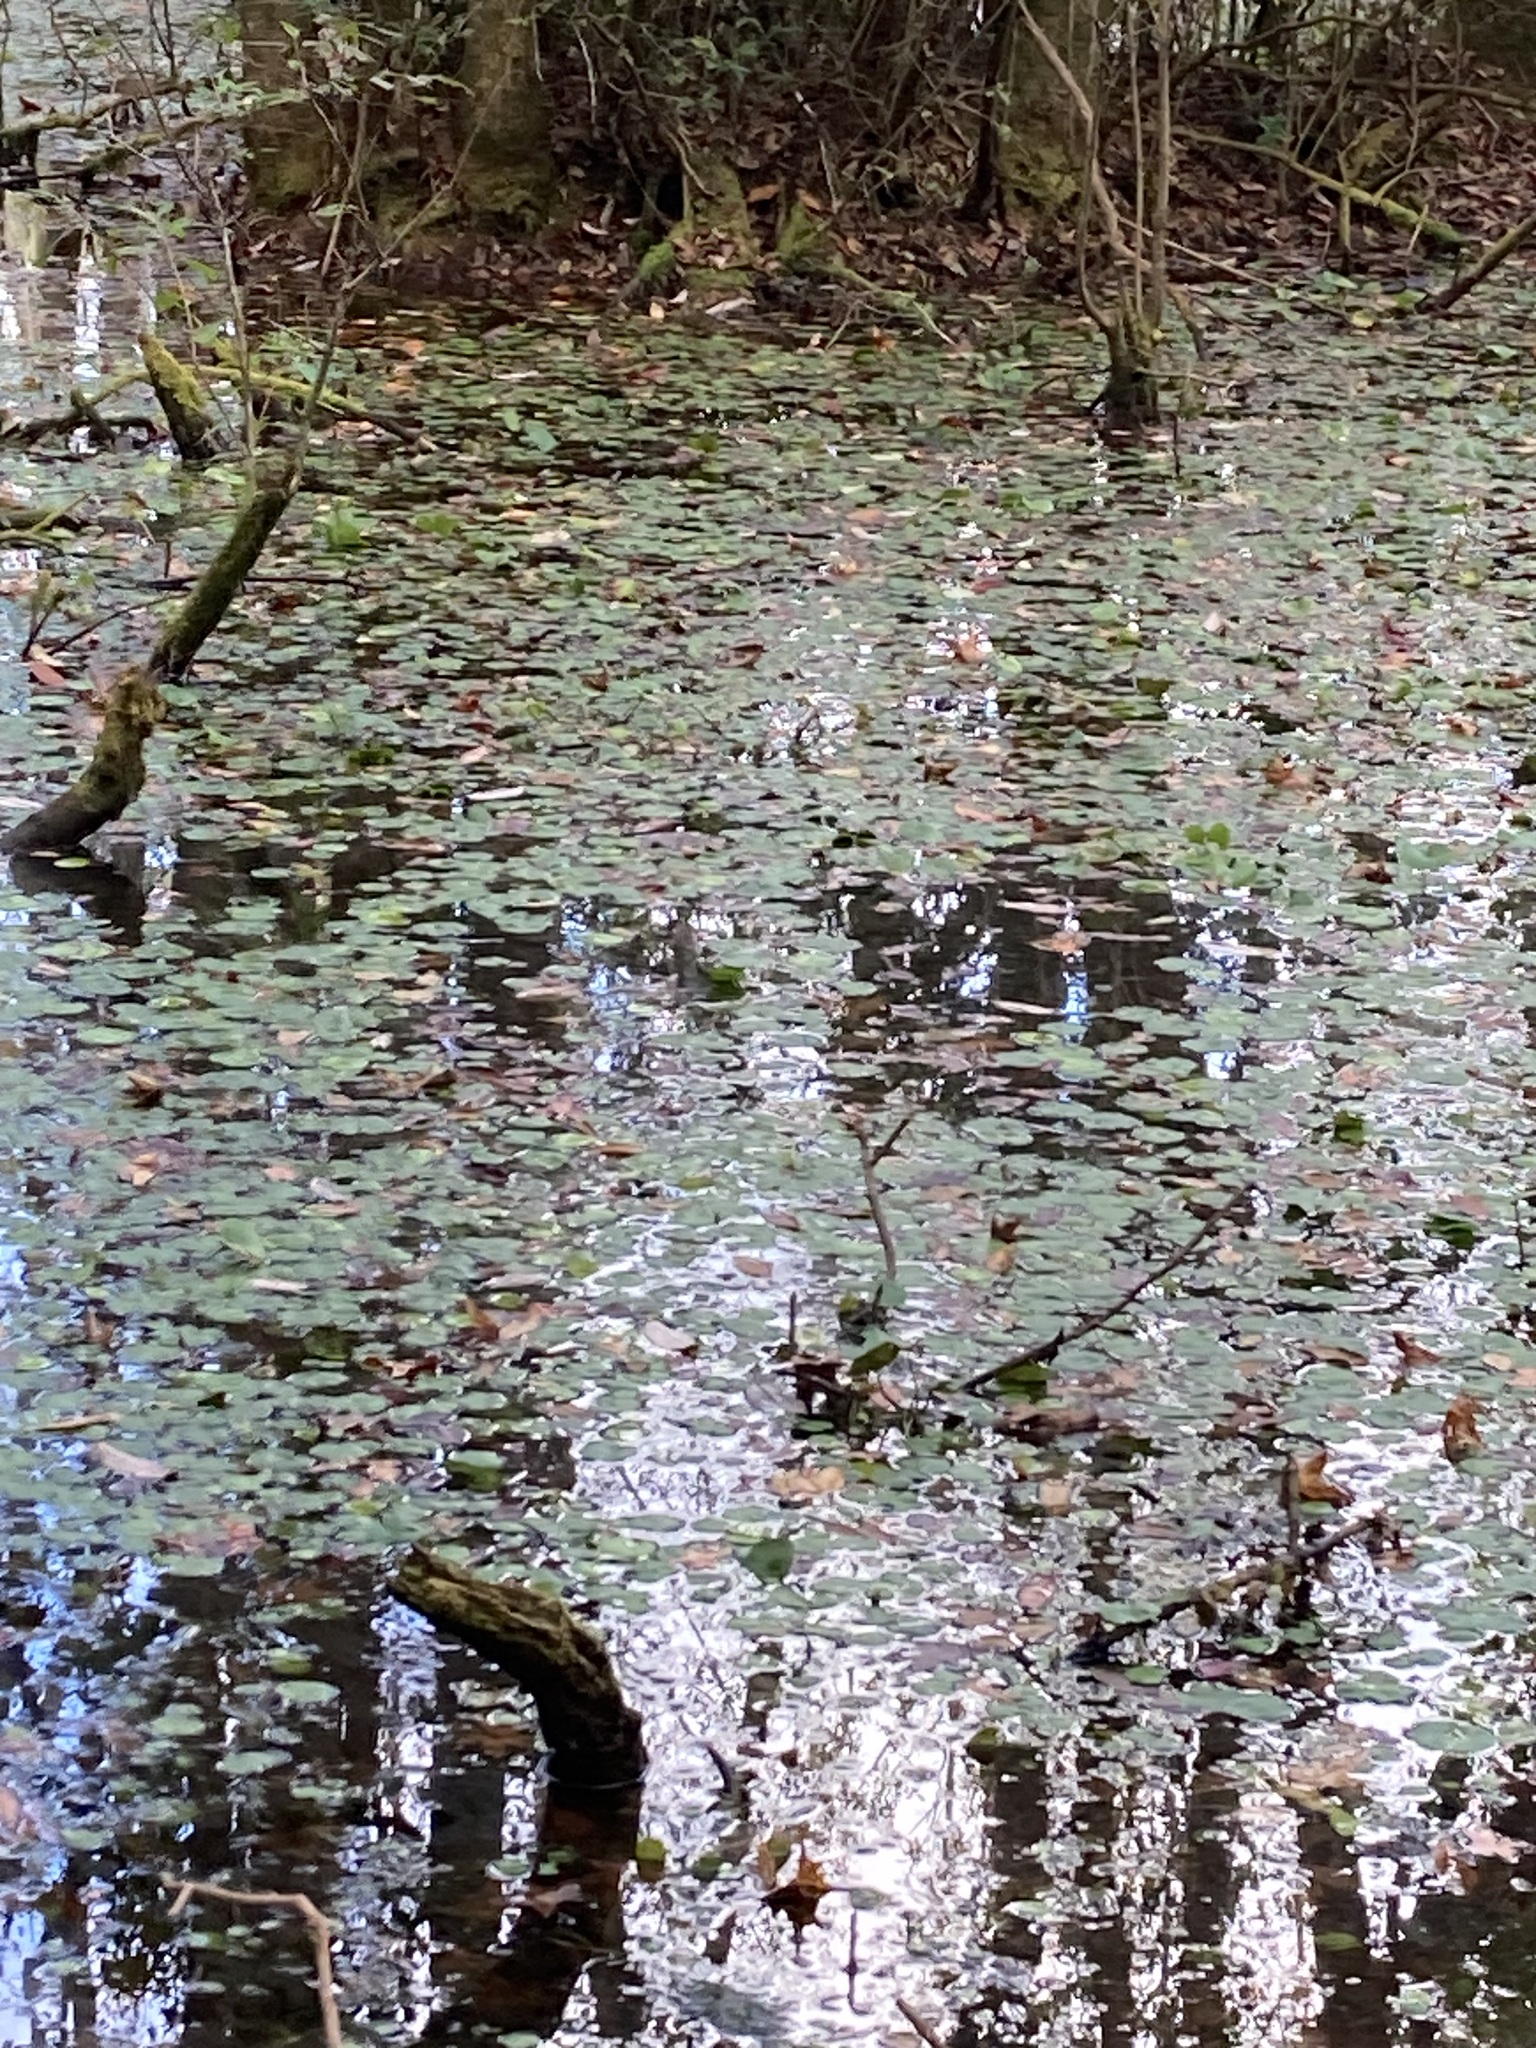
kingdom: Plantae
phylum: Tracheophyta
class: Magnoliopsida
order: Nymphaeales
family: Cabombaceae
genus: Brasenia
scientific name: Brasenia schreberi
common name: Water-shield
